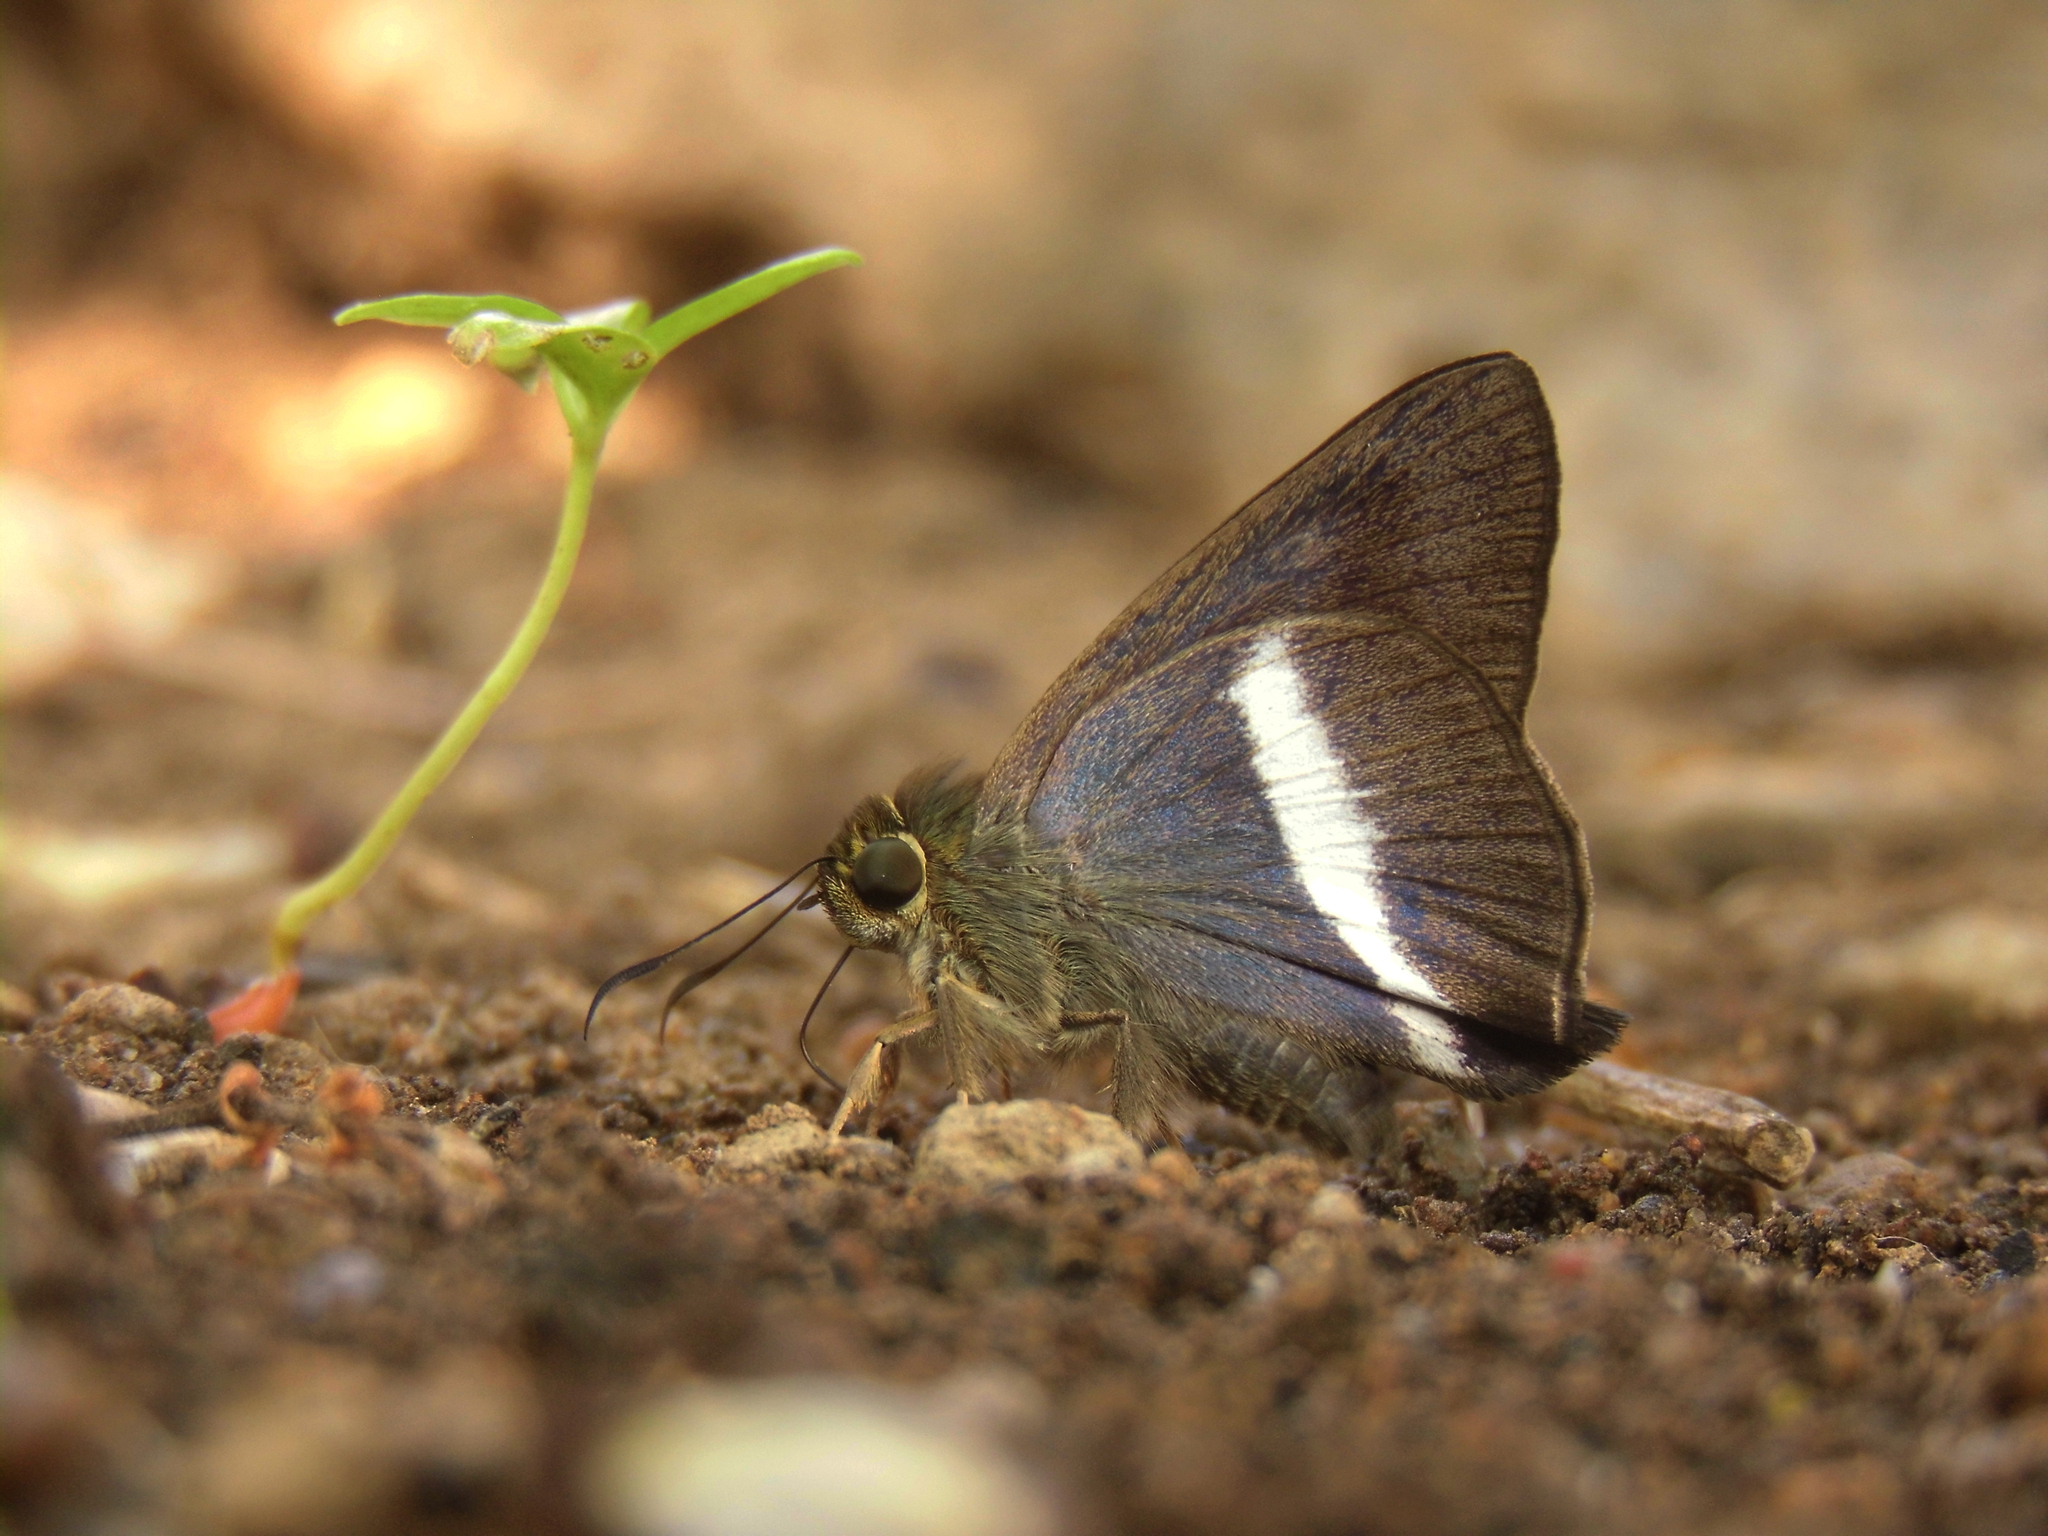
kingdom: Animalia
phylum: Arthropoda
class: Insecta
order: Lepidoptera
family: Hesperiidae
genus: Hasora
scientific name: Hasora taminatus
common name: White banded awl
